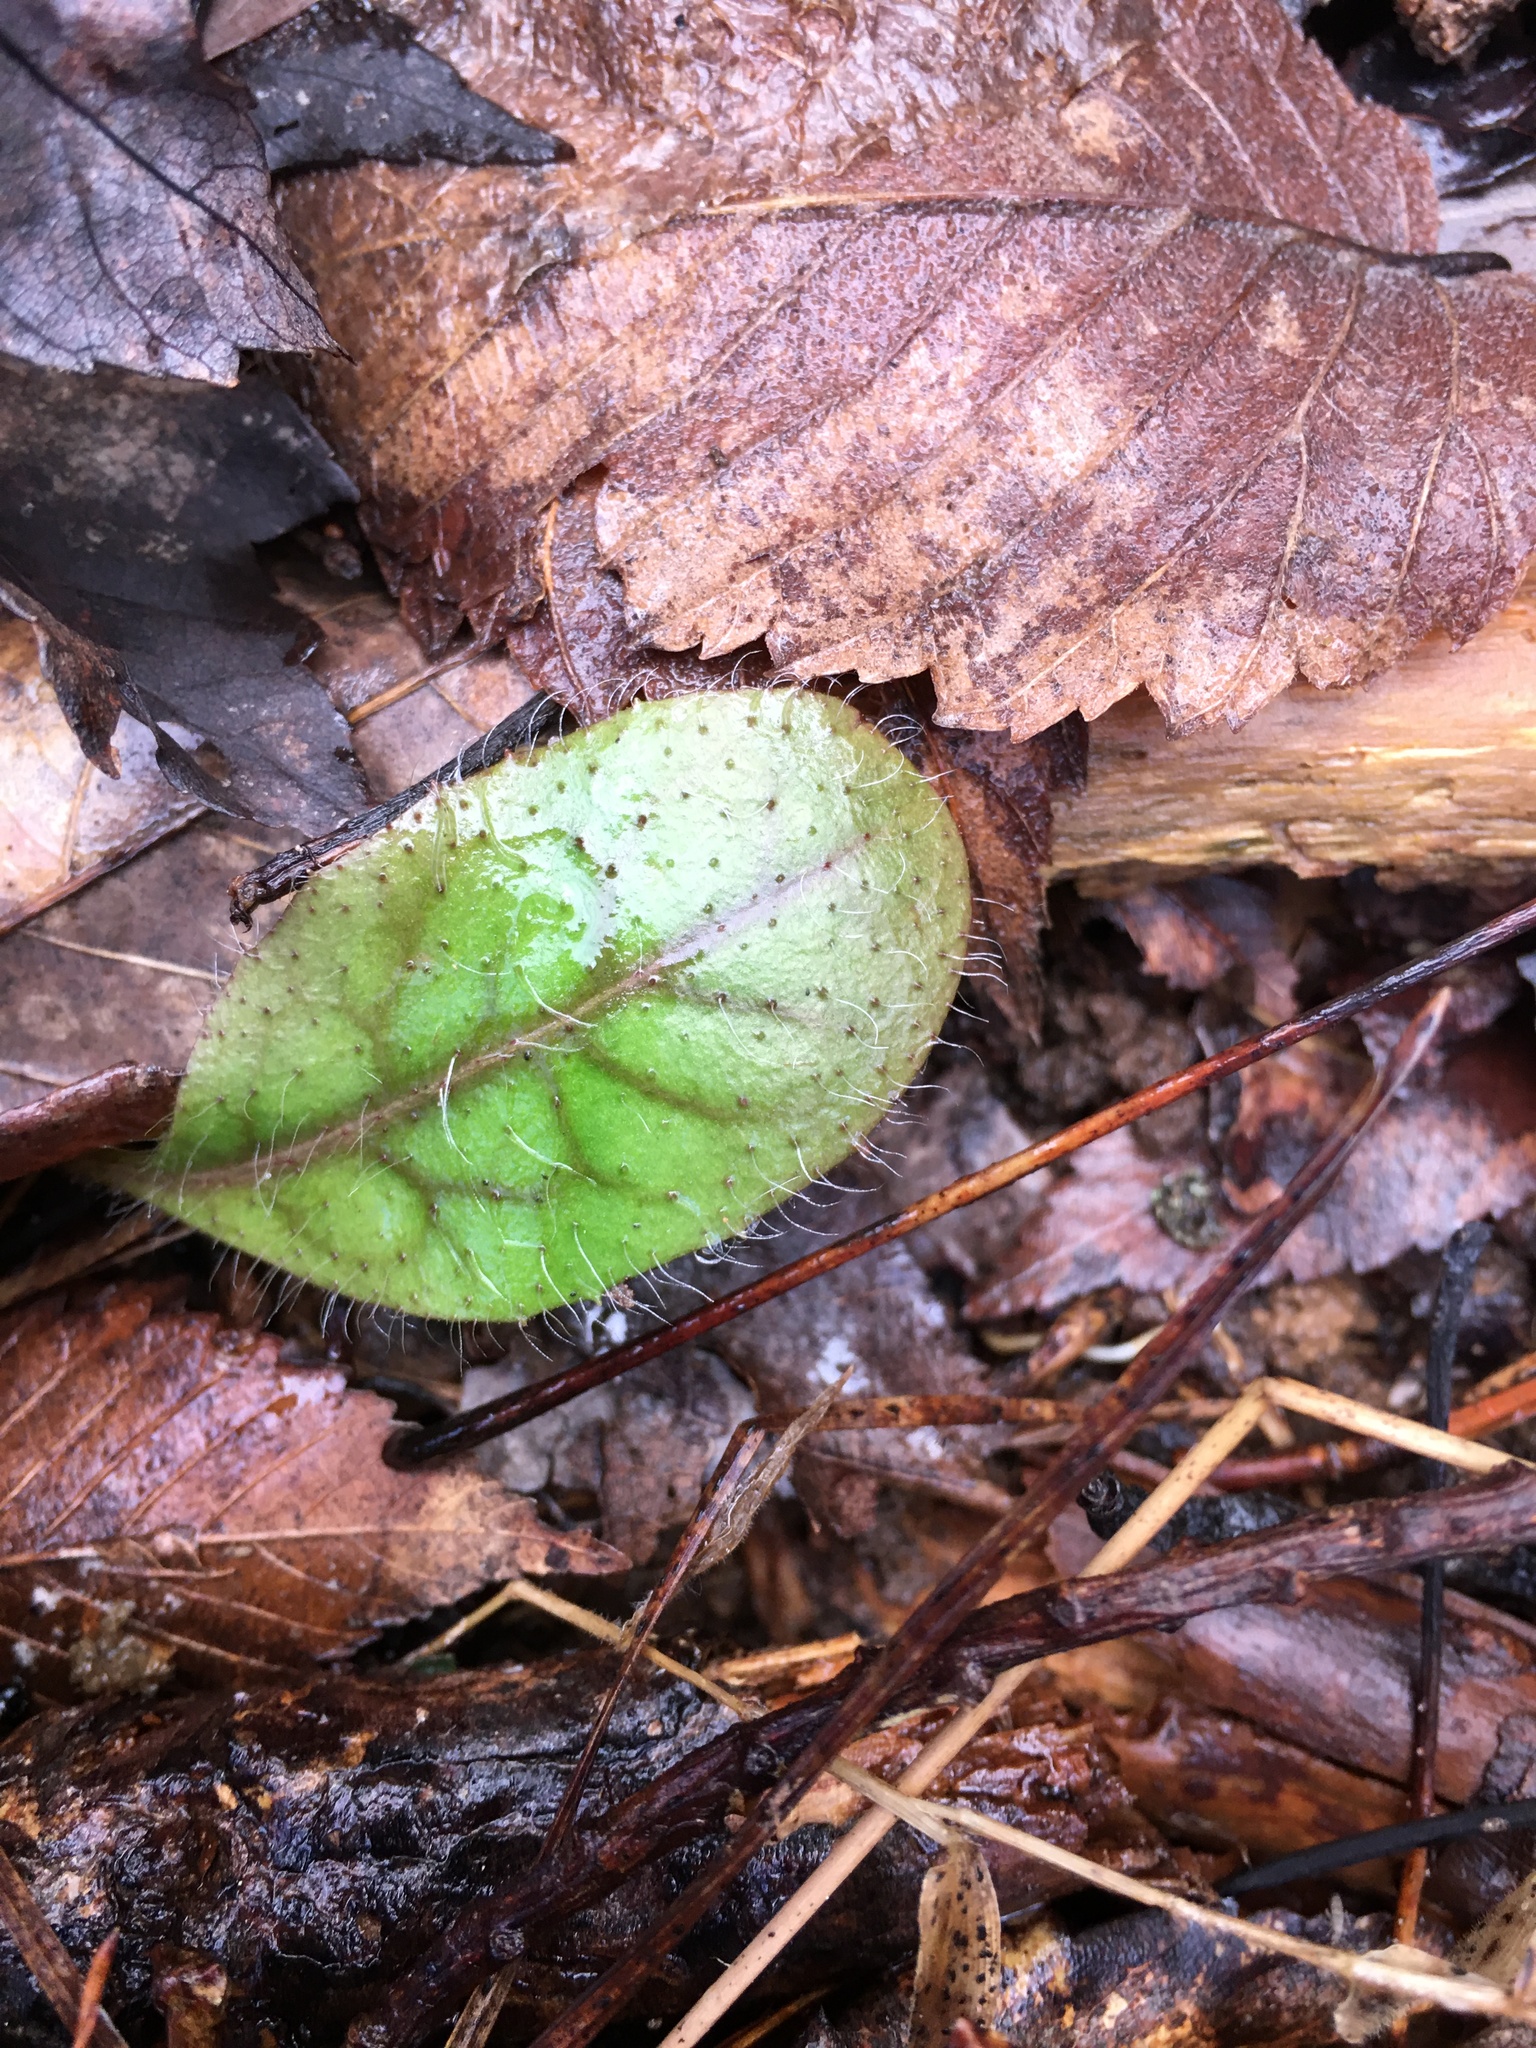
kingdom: Plantae
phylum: Tracheophyta
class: Magnoliopsida
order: Asterales
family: Asteraceae
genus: Hieracium
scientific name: Hieracium venosum
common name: Rattlesnake hawkweed
